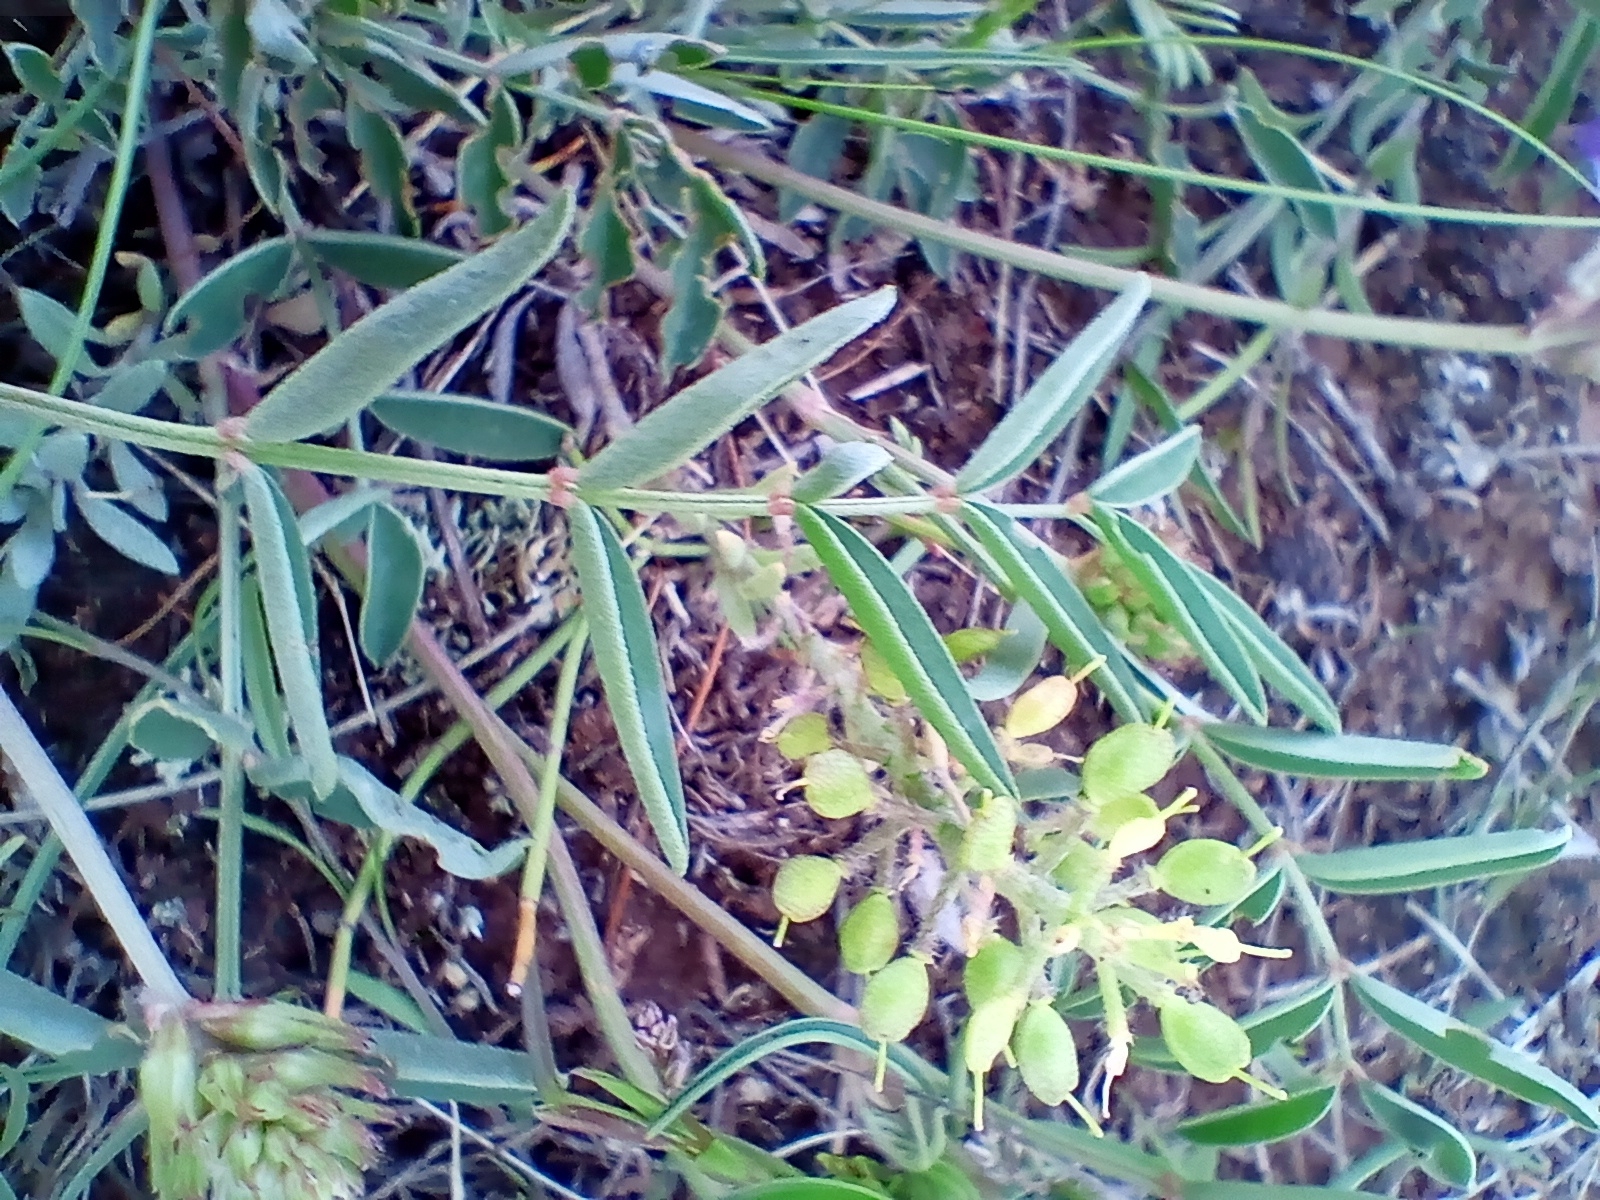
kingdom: Plantae
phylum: Tracheophyta
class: Magnoliopsida
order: Fabales
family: Fabaceae
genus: Hedysarum
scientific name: Hedysarum gmelinii
